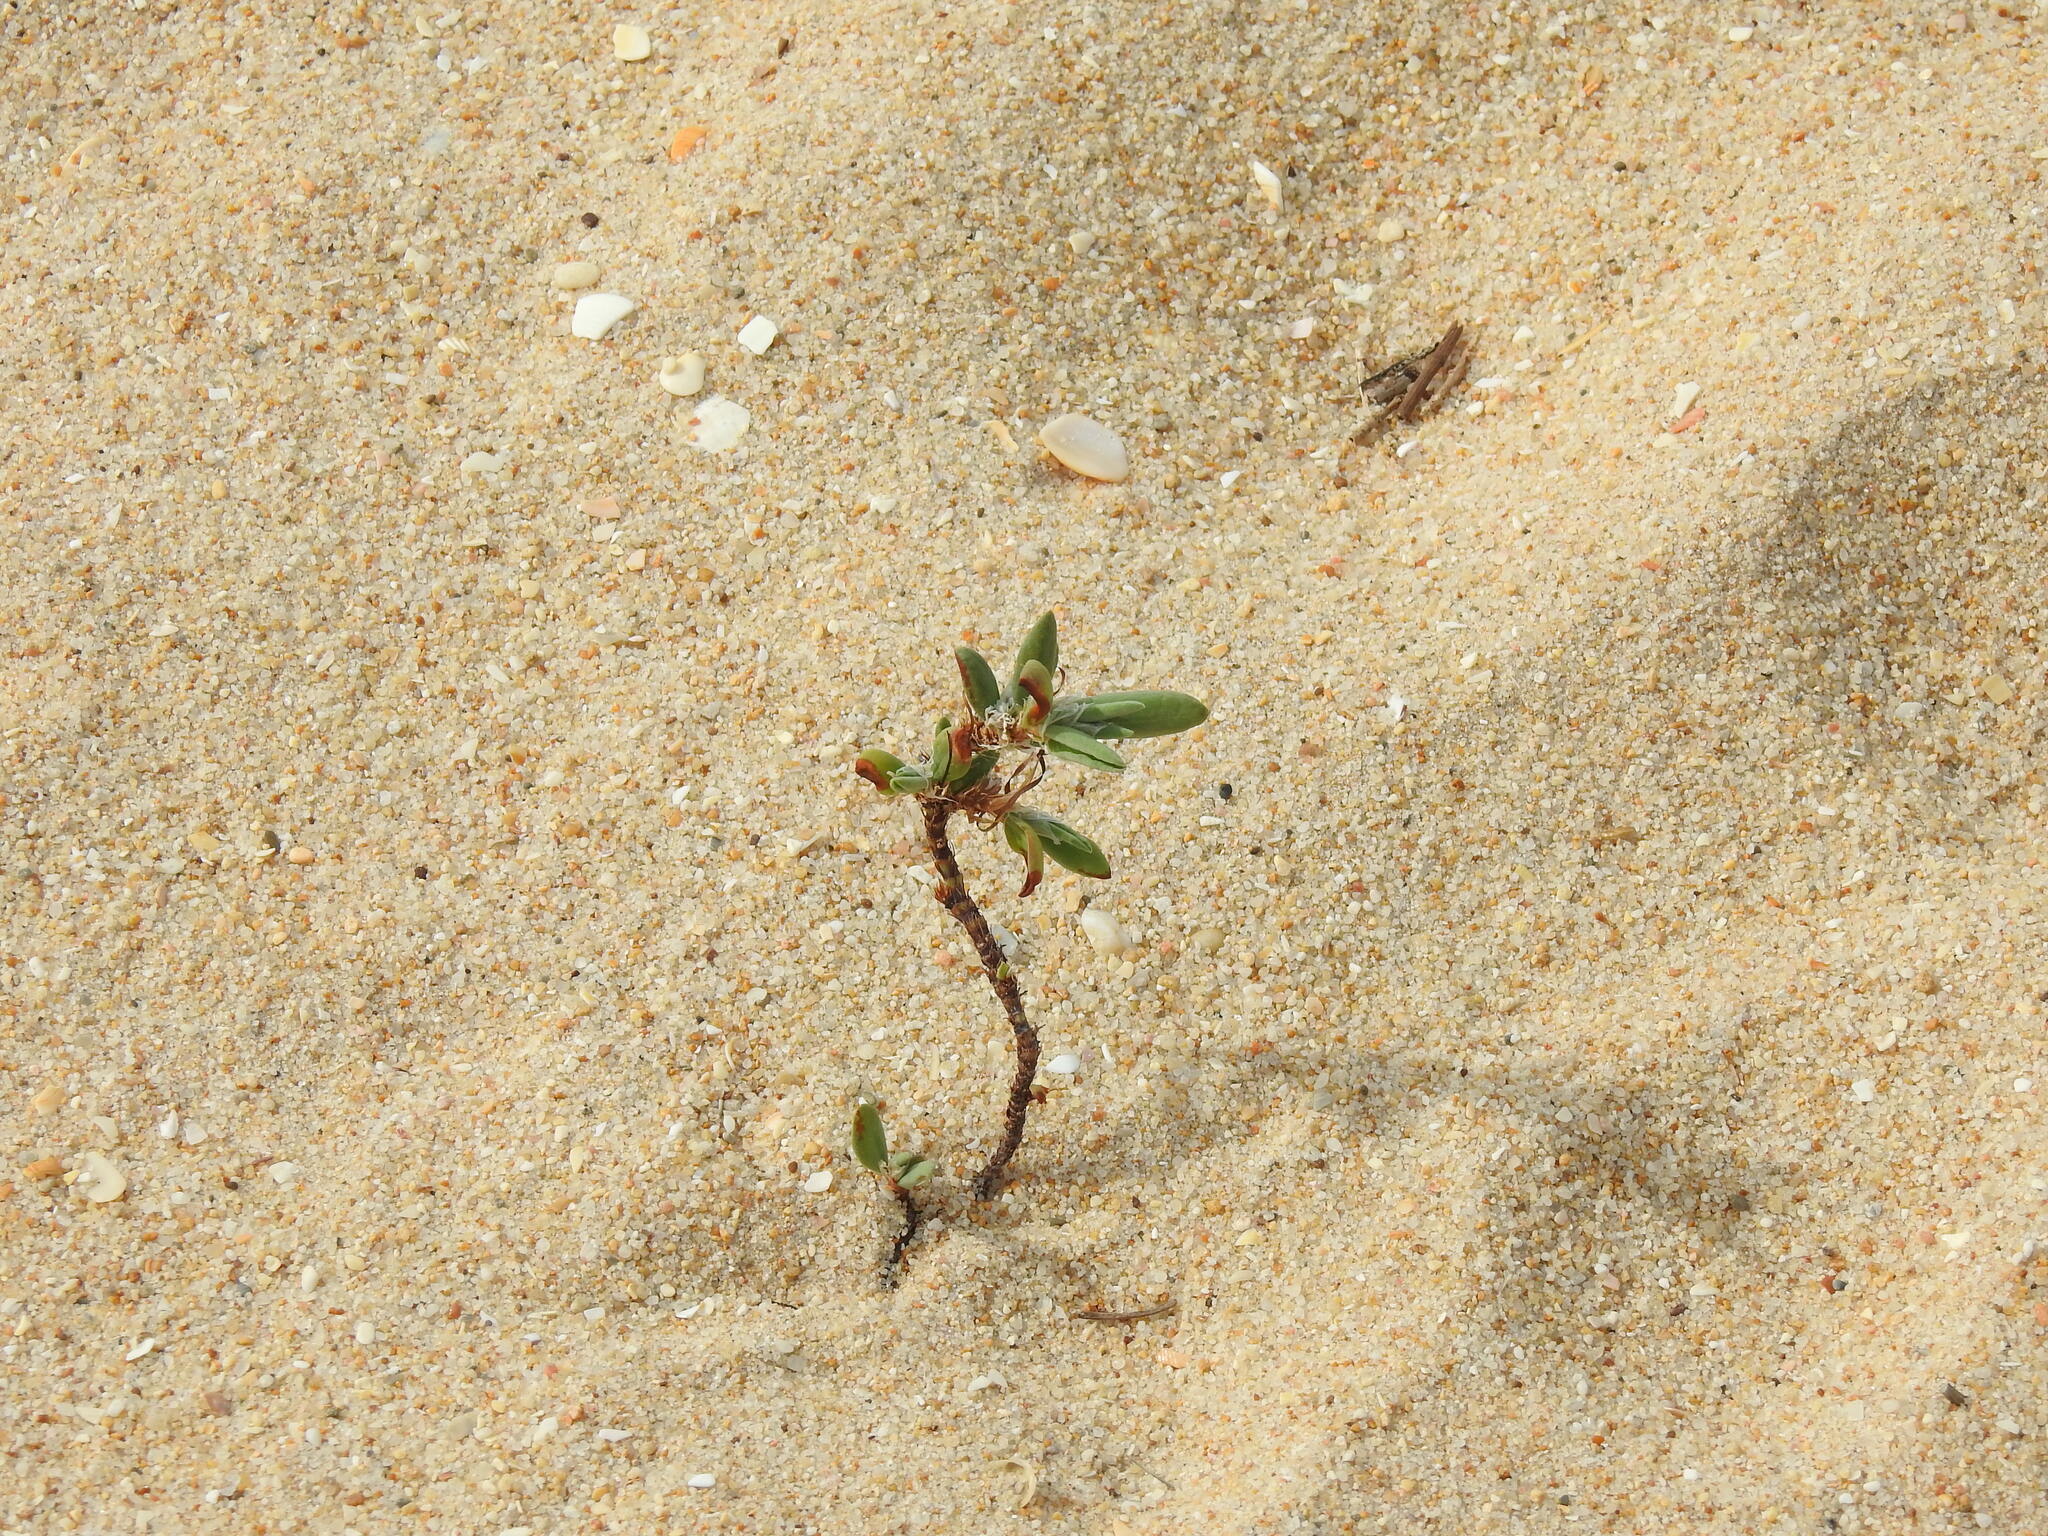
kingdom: Plantae
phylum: Tracheophyta
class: Magnoliopsida
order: Caryophyllales
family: Polygonaceae
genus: Polygonum
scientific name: Polygonum maritimum
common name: Sea knotgrass
